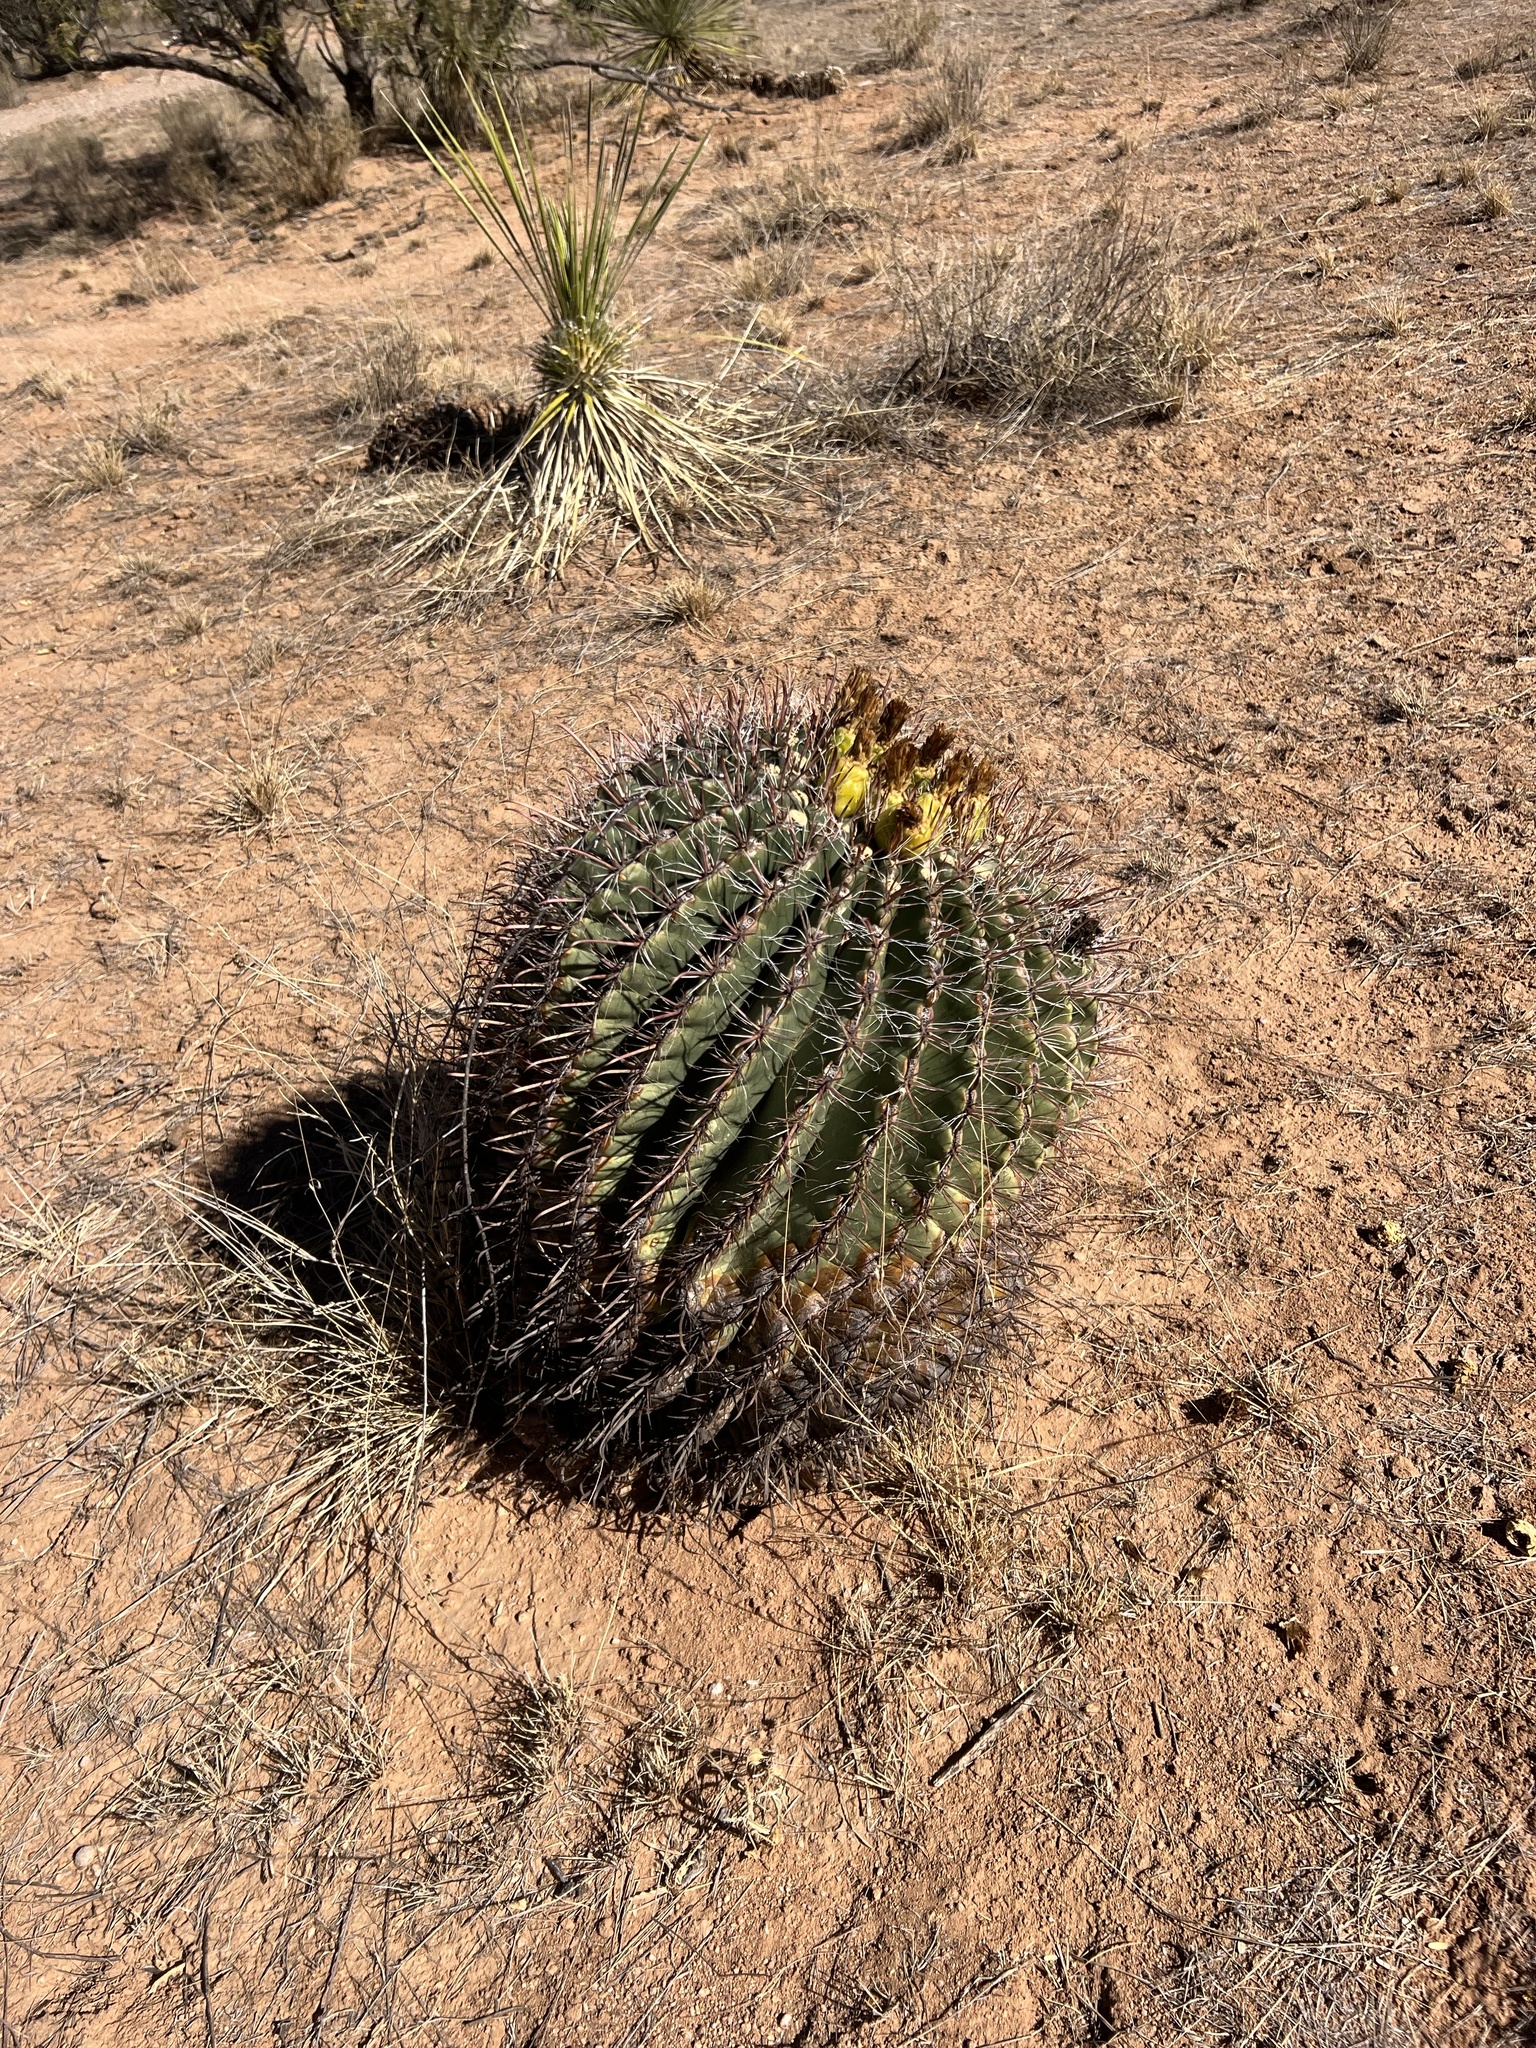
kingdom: Plantae
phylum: Tracheophyta
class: Magnoliopsida
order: Caryophyllales
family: Cactaceae
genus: Ferocactus
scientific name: Ferocactus wislizeni
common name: Candy barrel cactus
